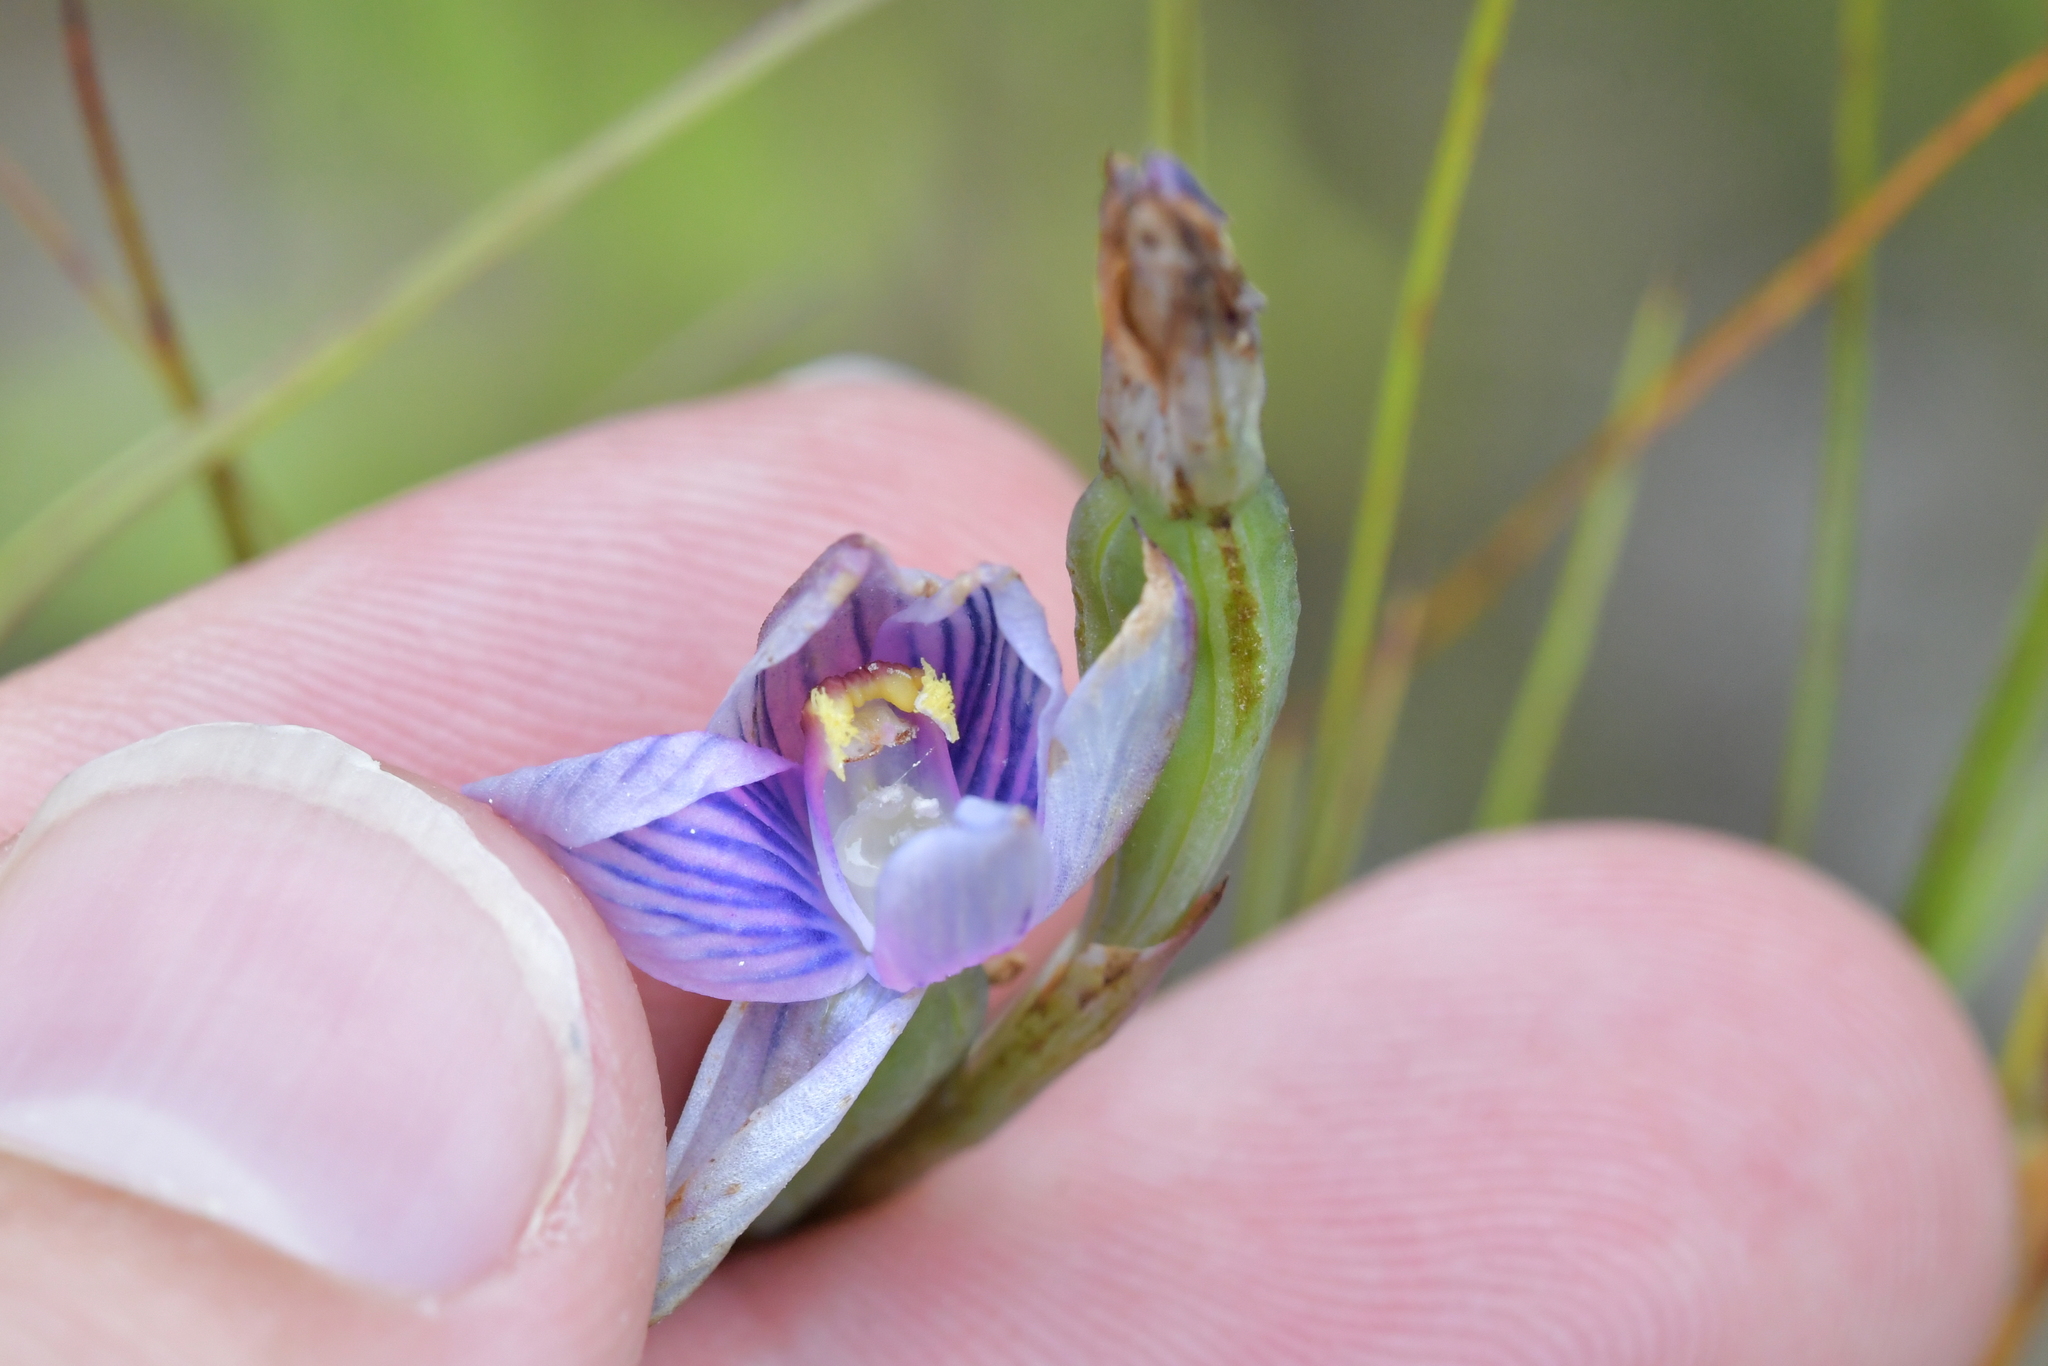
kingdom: Plantae
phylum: Tracheophyta
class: Liliopsida
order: Asparagales
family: Orchidaceae
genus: Thelymitra
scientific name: Thelymitra pulchella
